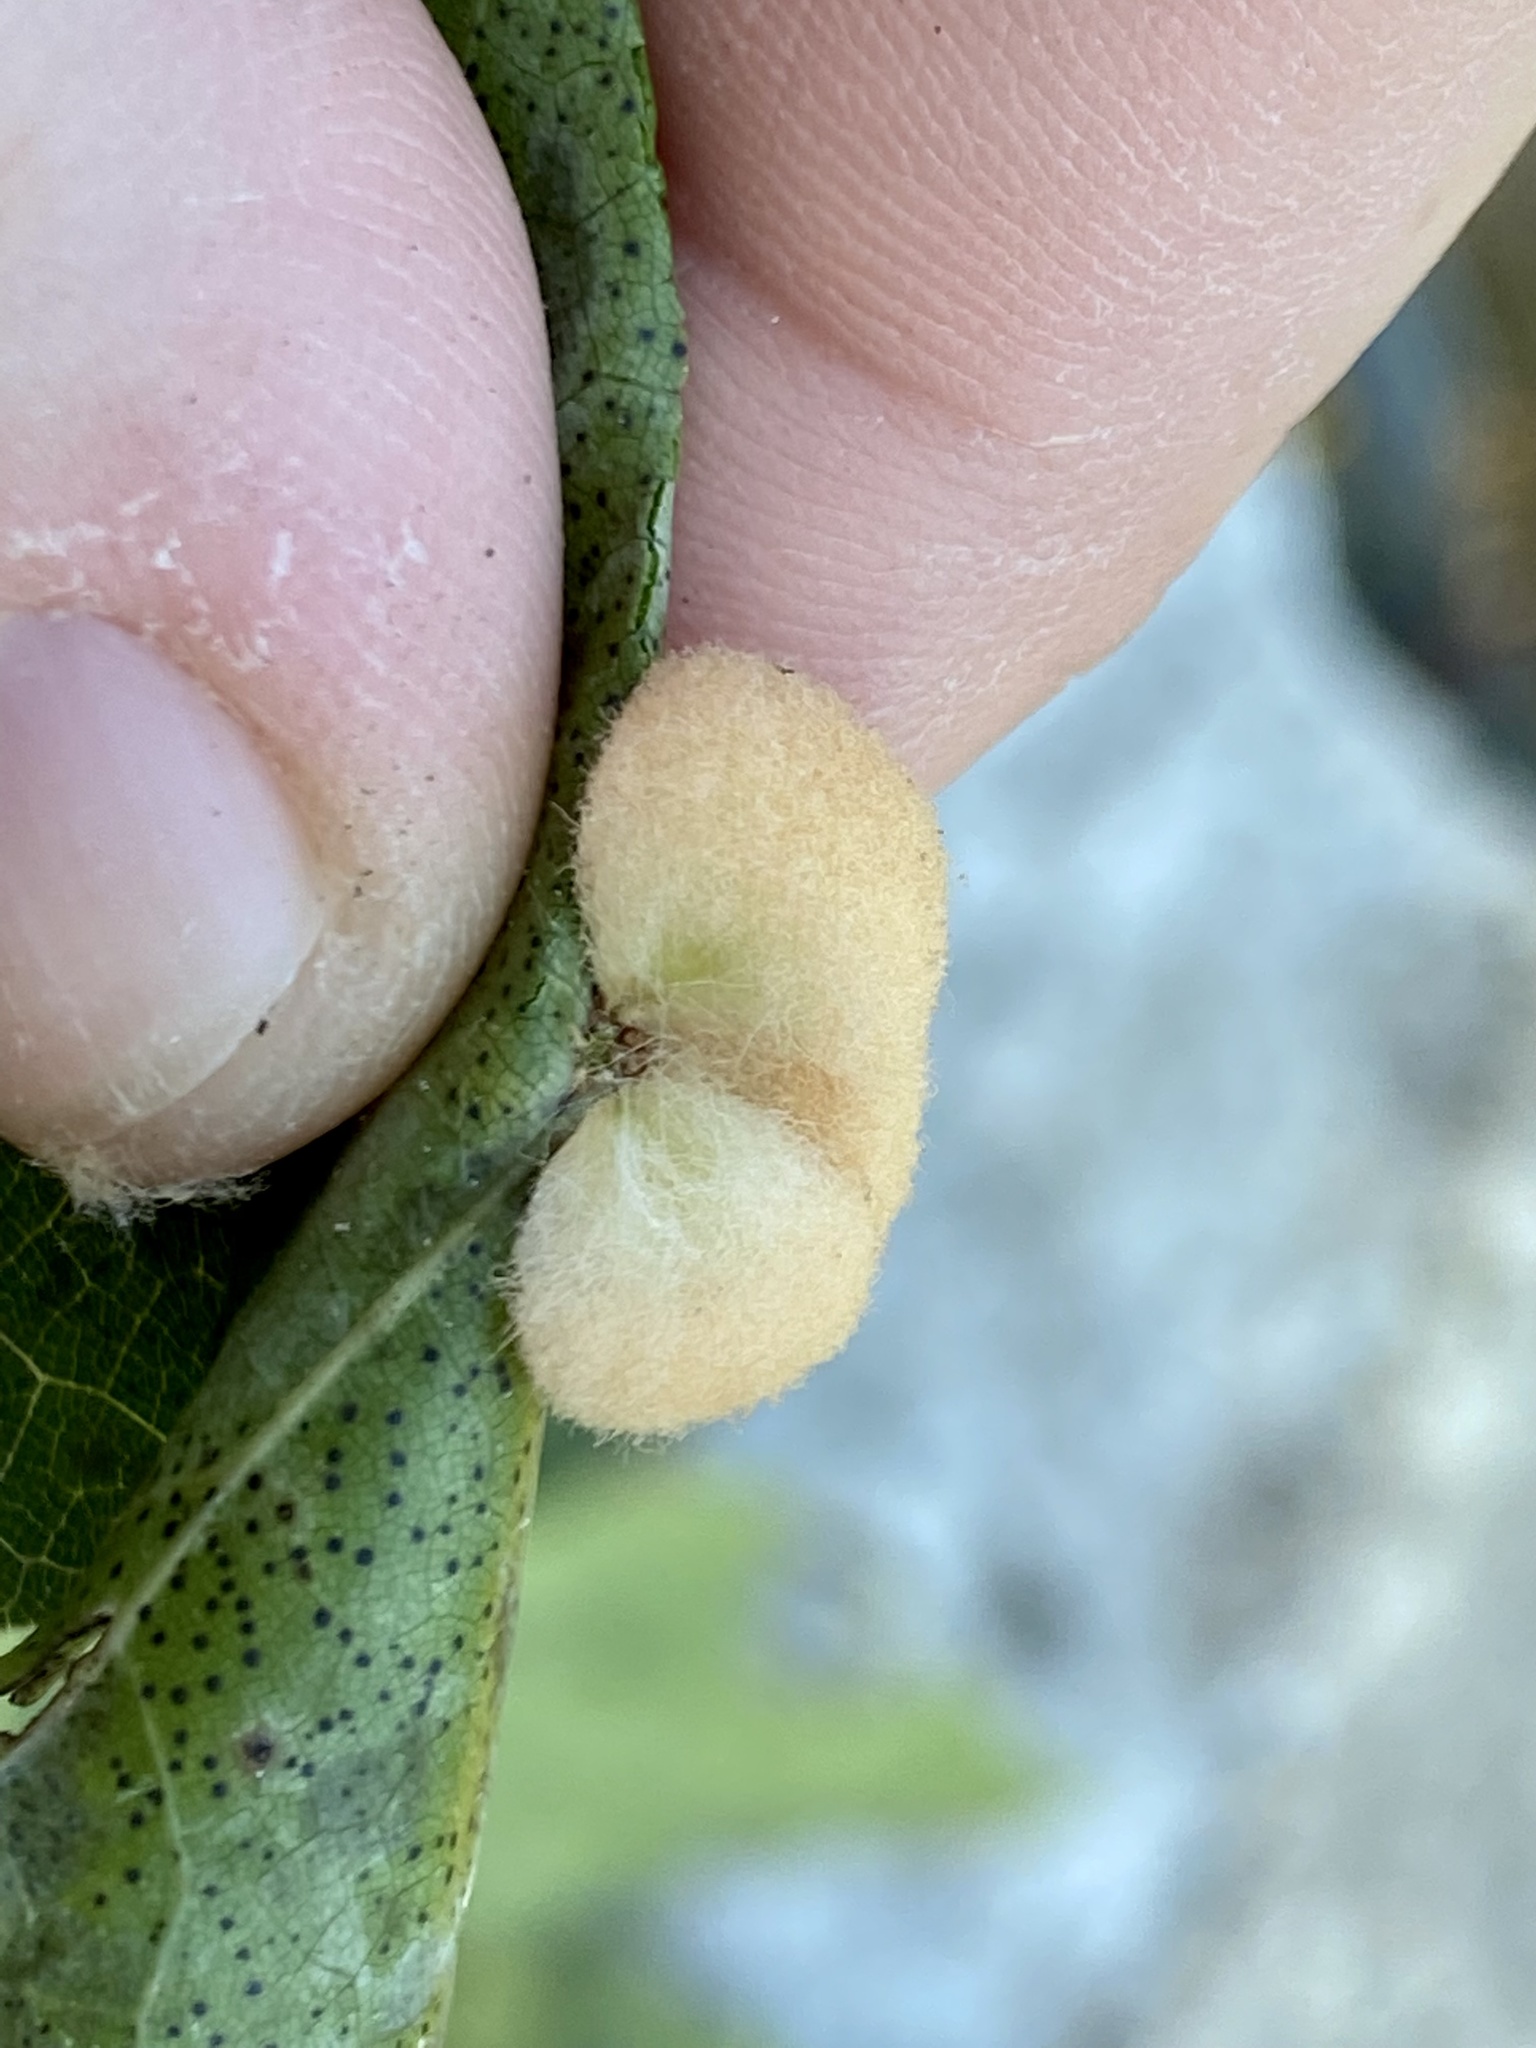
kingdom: Animalia
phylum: Arthropoda
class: Insecta
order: Hymenoptera
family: Cynipidae
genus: Callirhytis
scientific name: Callirhytis
